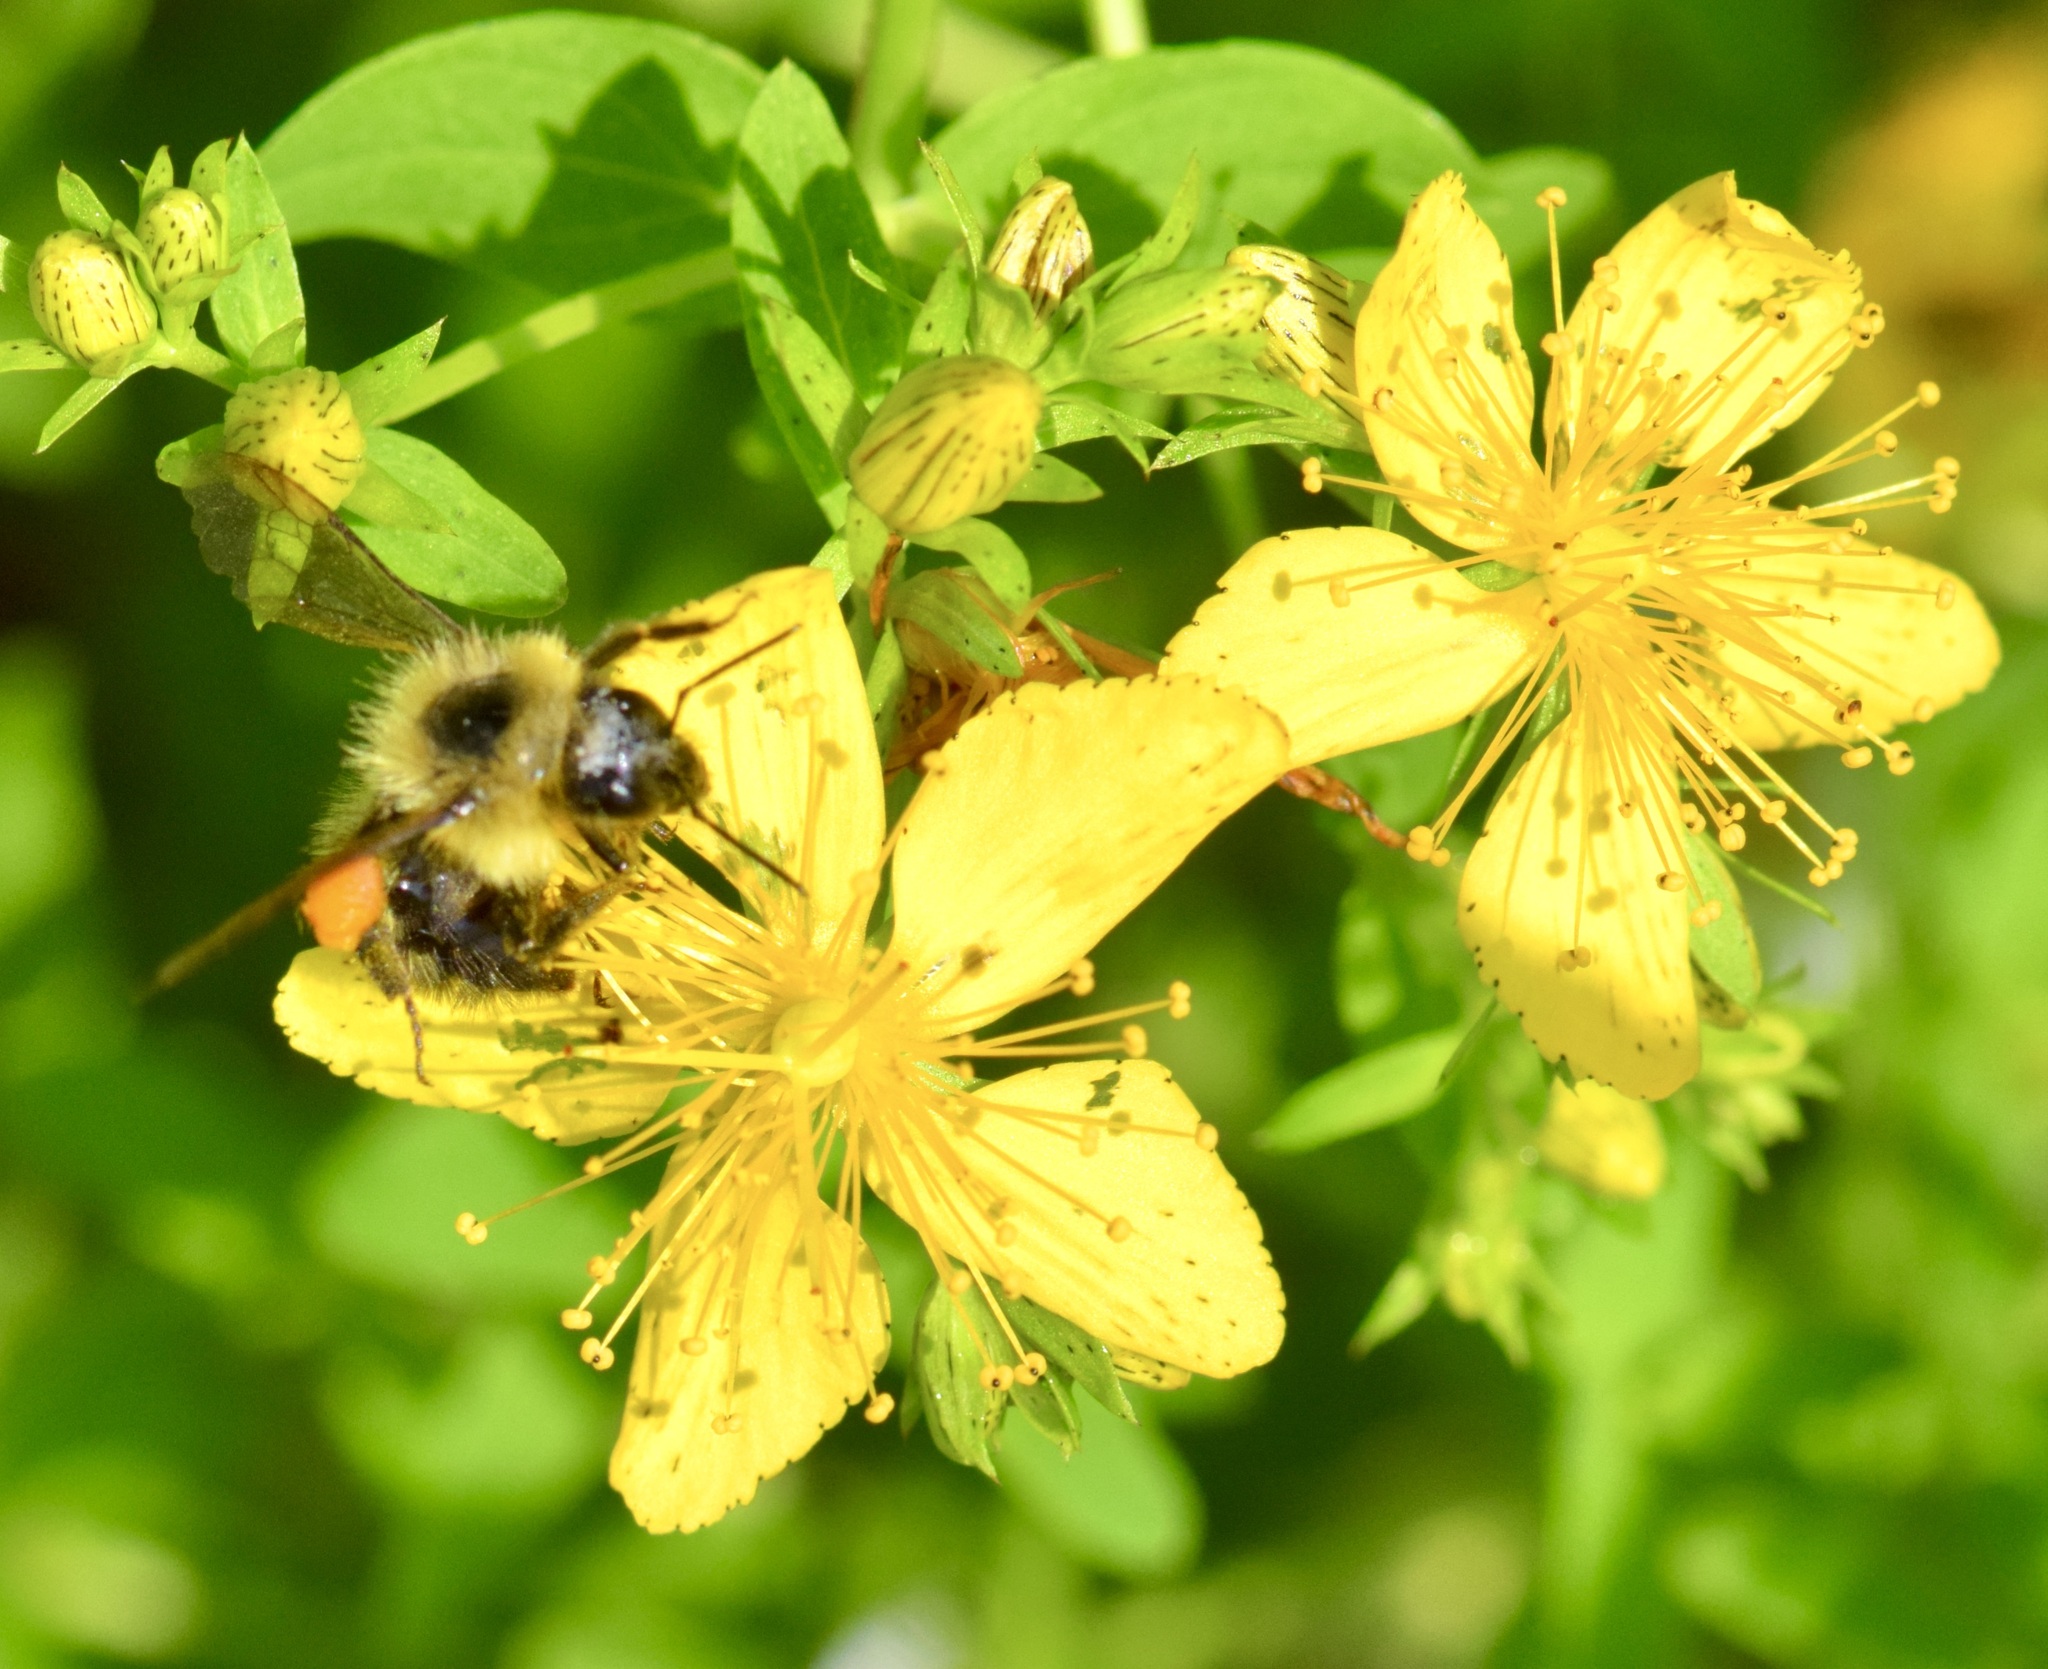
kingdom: Animalia
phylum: Arthropoda
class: Insecta
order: Hymenoptera
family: Apidae
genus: Pyrobombus
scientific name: Pyrobombus
